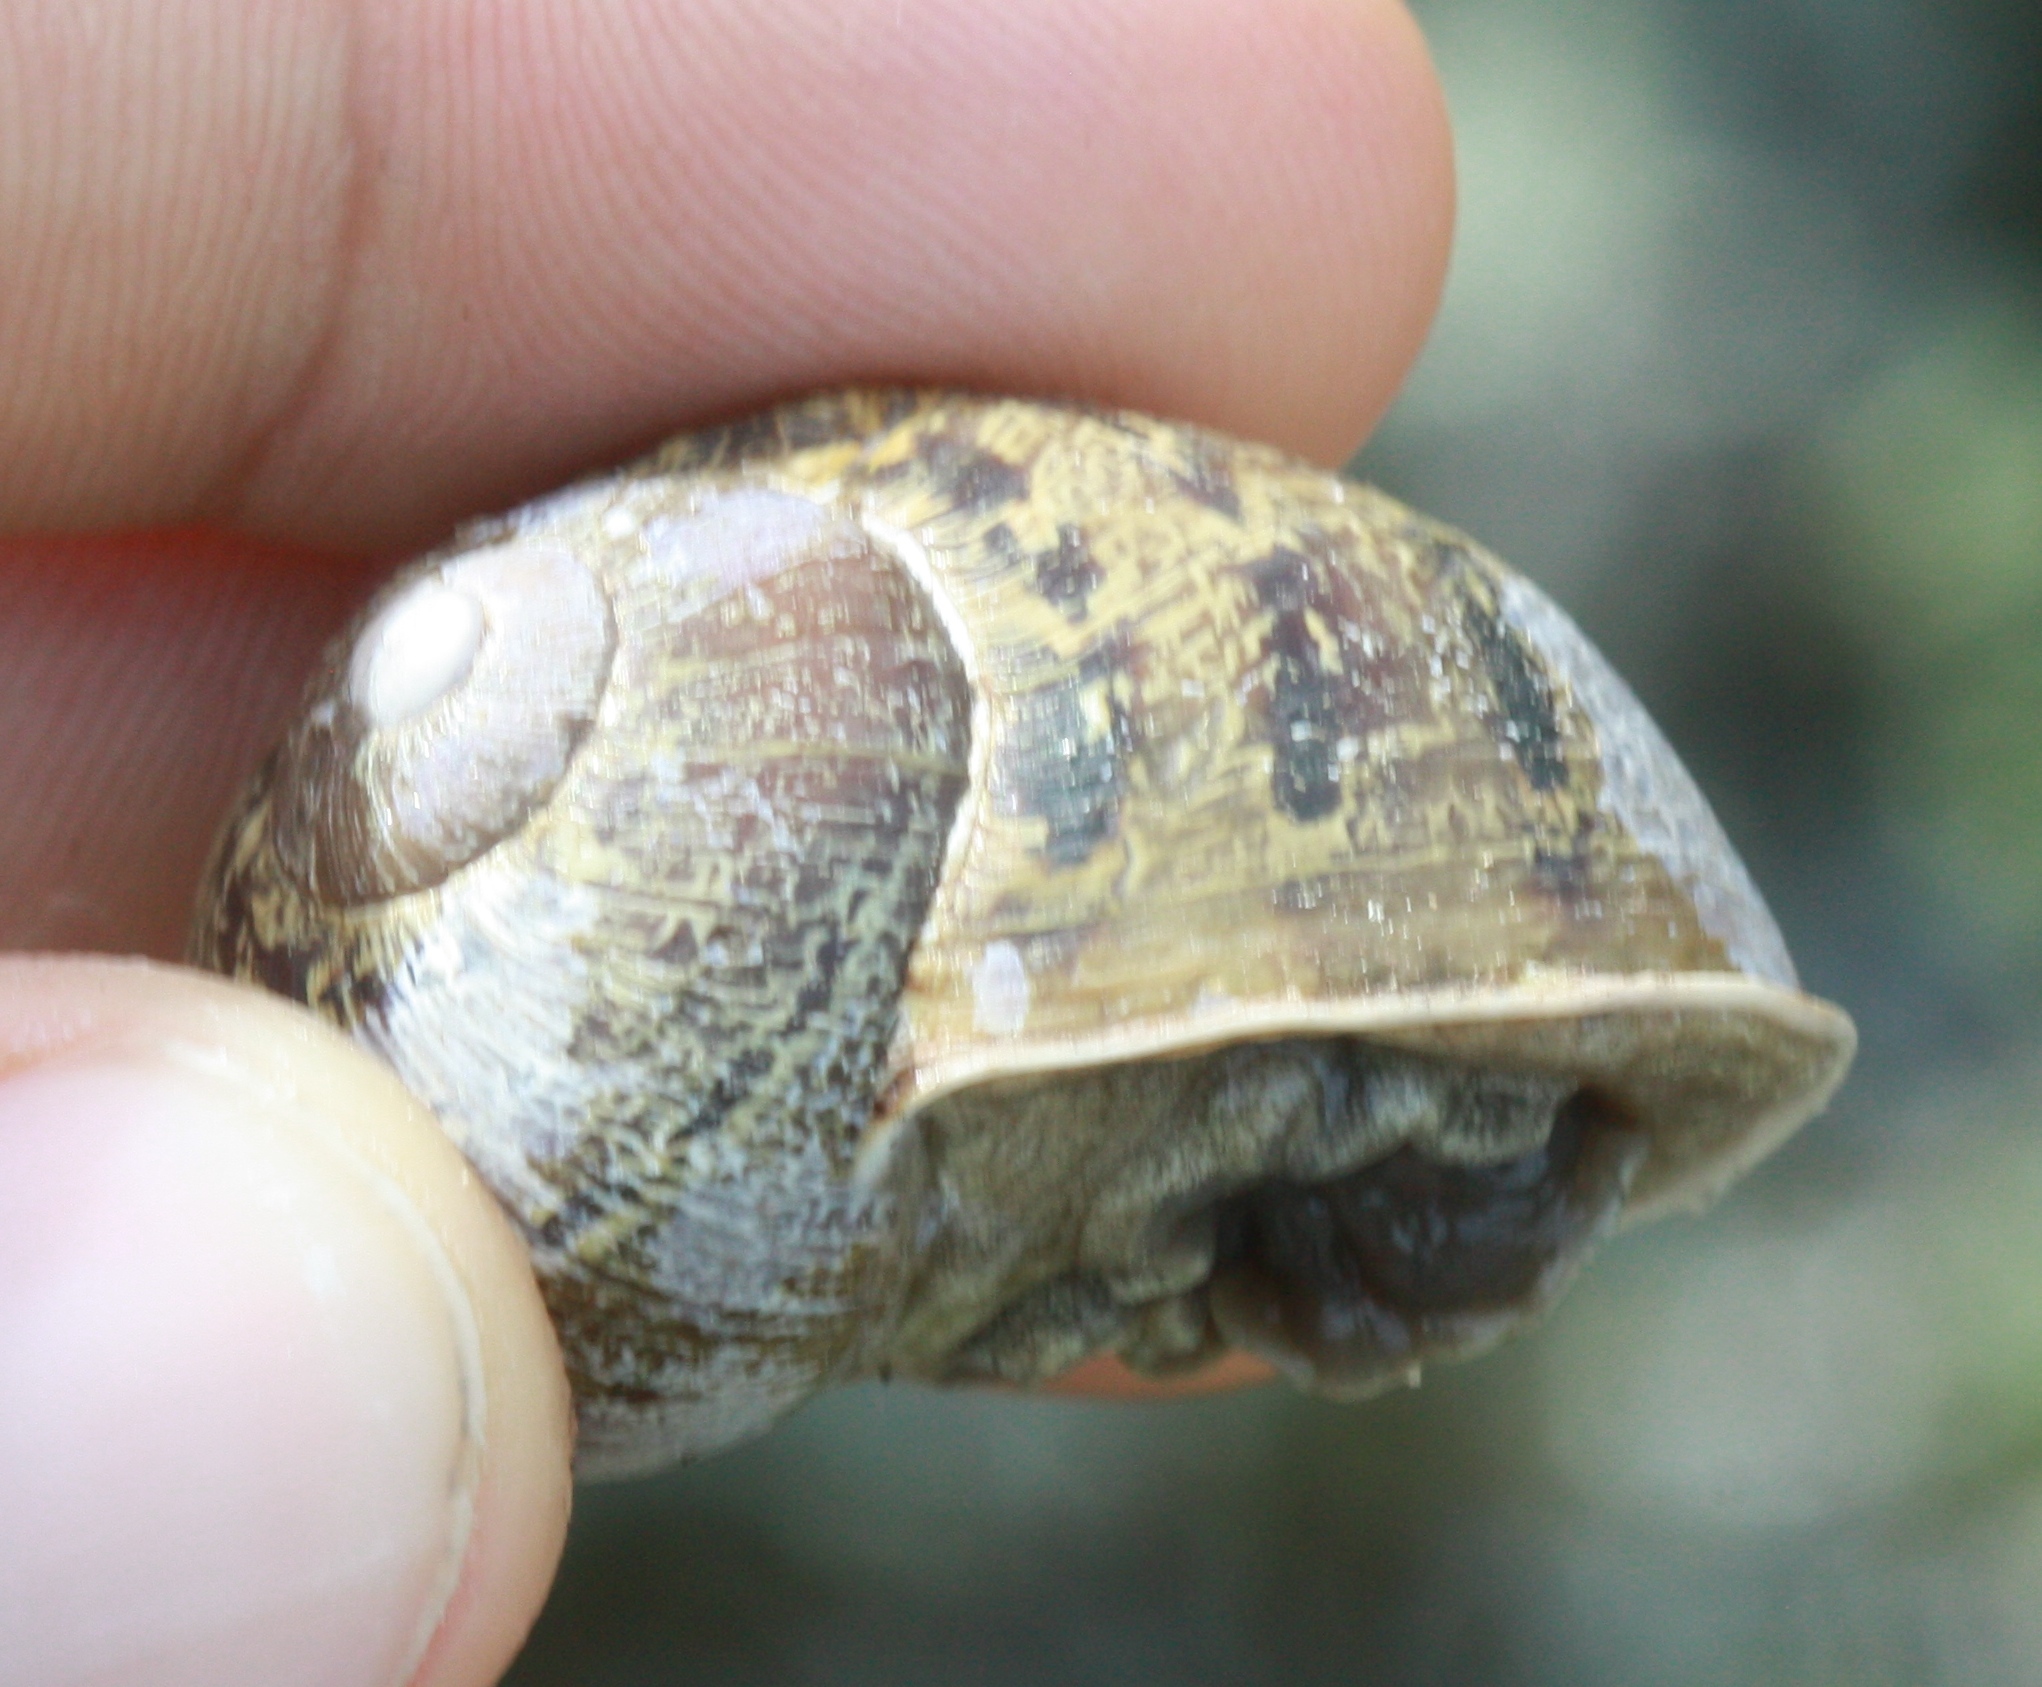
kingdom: Animalia
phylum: Mollusca
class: Gastropoda
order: Stylommatophora
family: Helicidae
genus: Cornu
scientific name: Cornu aspersum
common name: Brown garden snail
